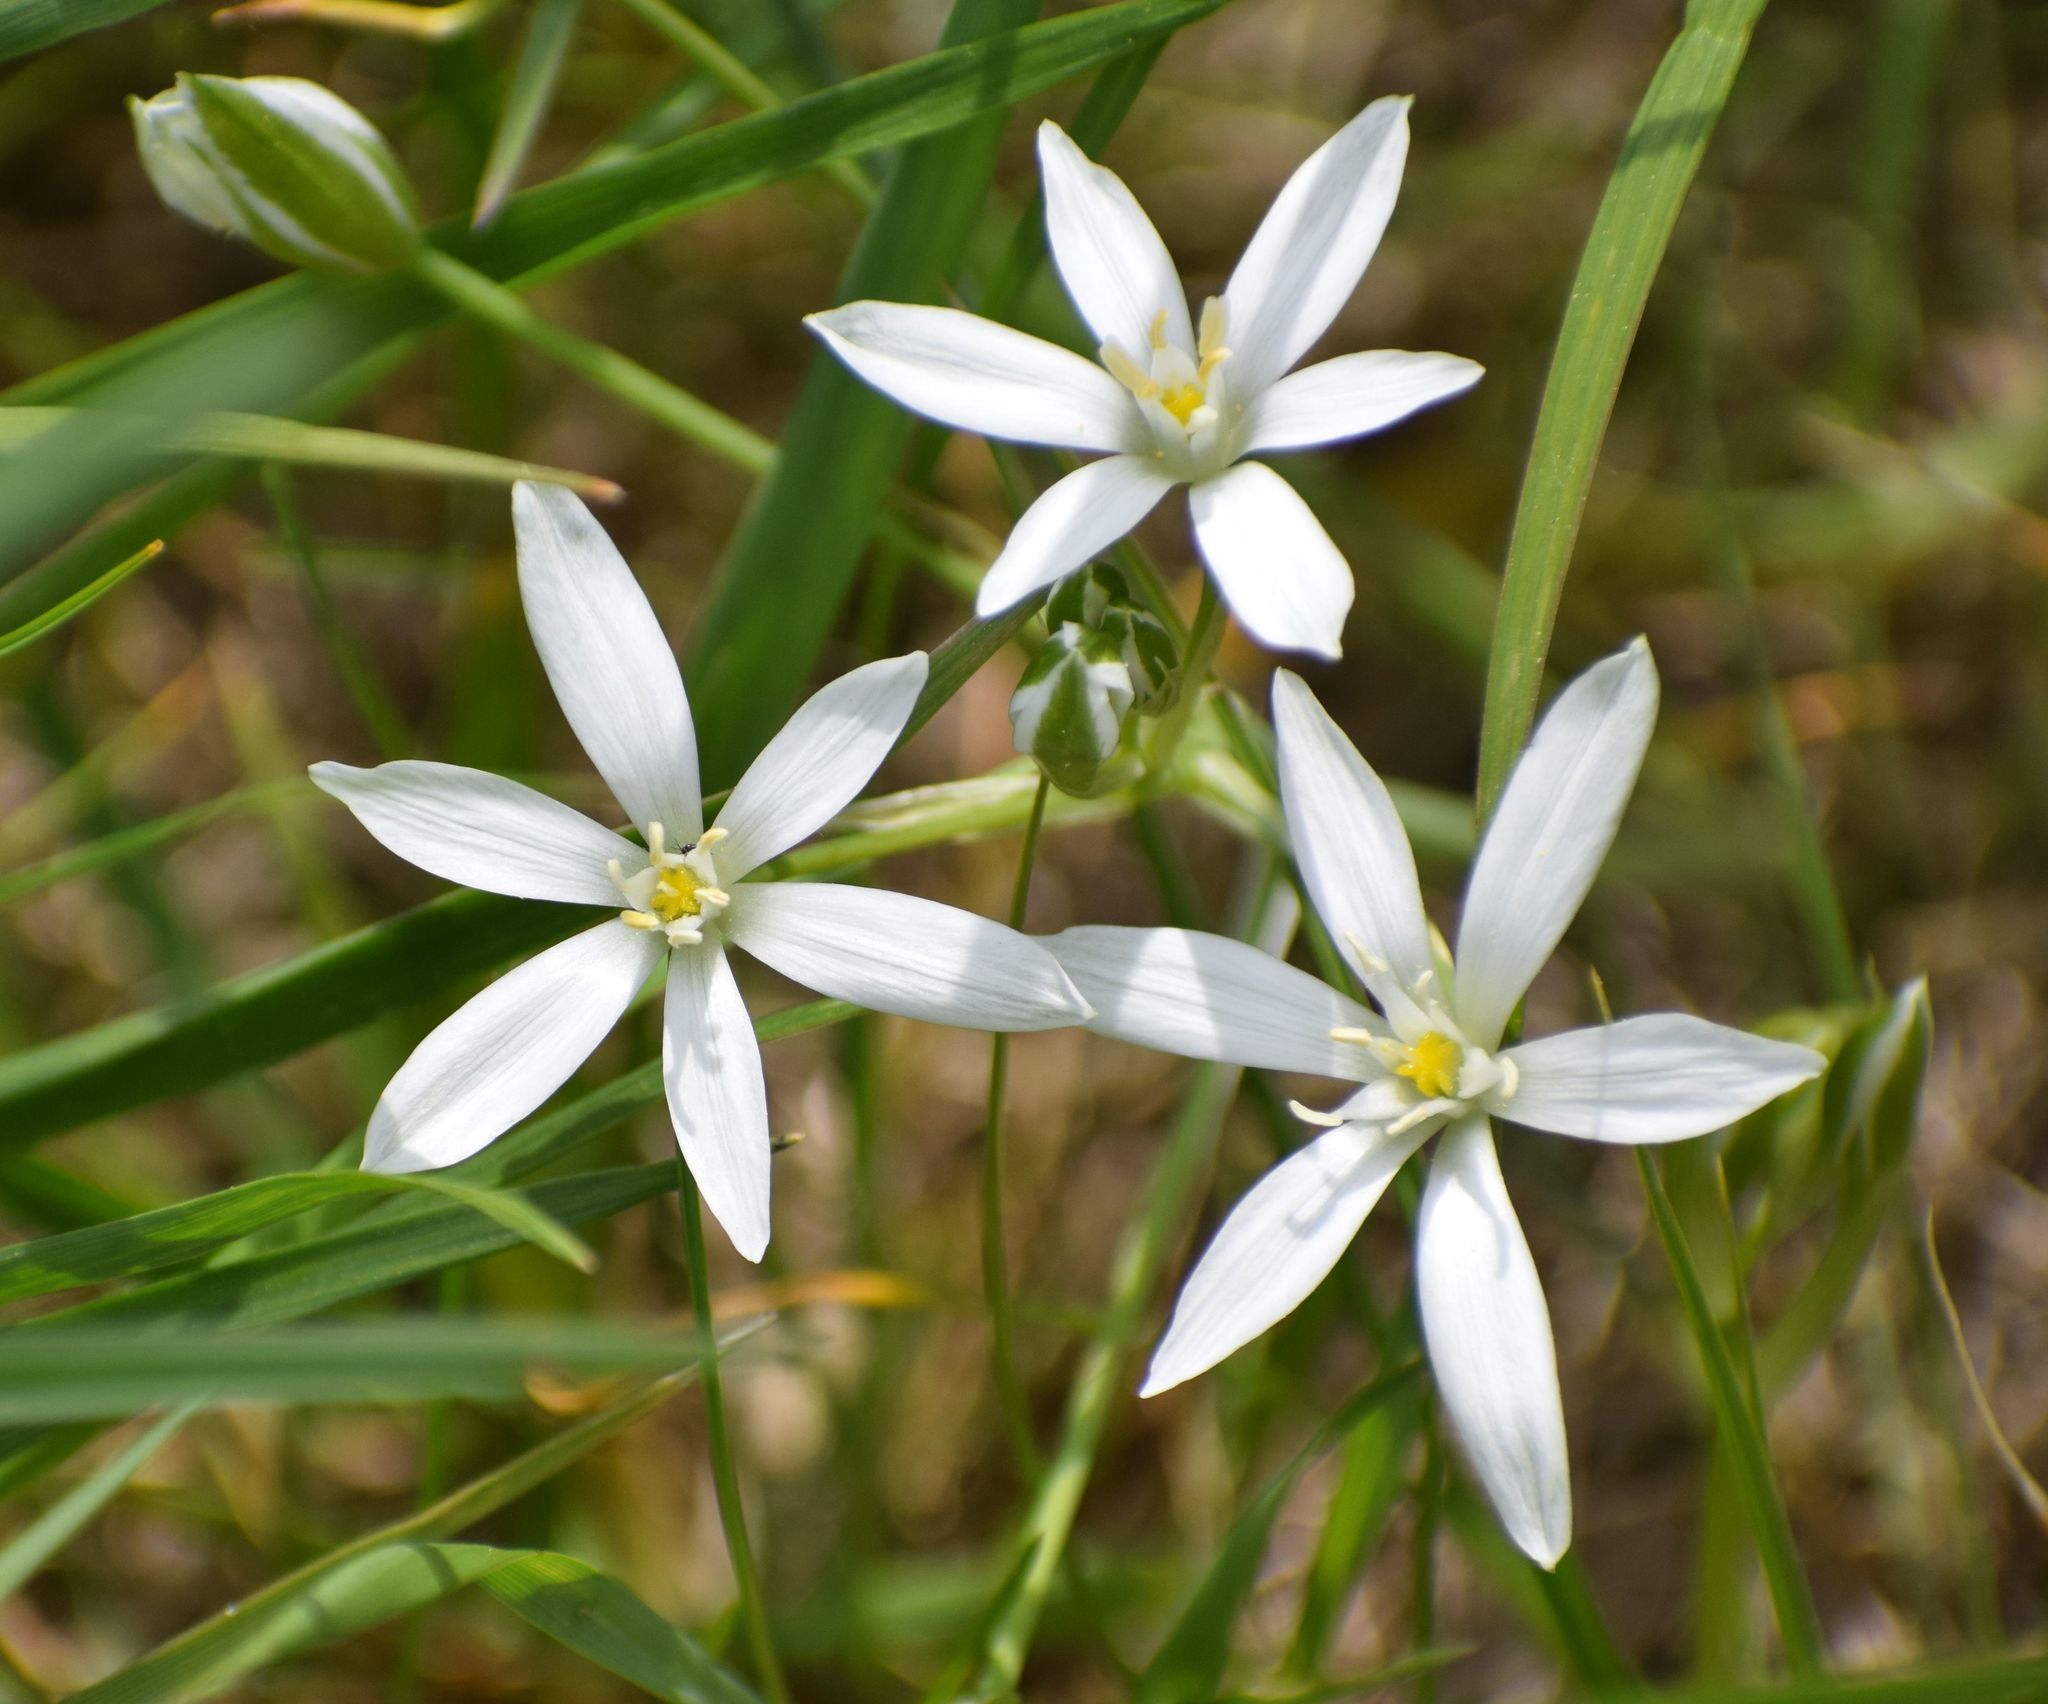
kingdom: Plantae
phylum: Tracheophyta
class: Liliopsida
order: Asparagales
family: Asparagaceae
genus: Ornithogalum
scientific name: Ornithogalum umbellatum
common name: Garden star-of-bethlehem
